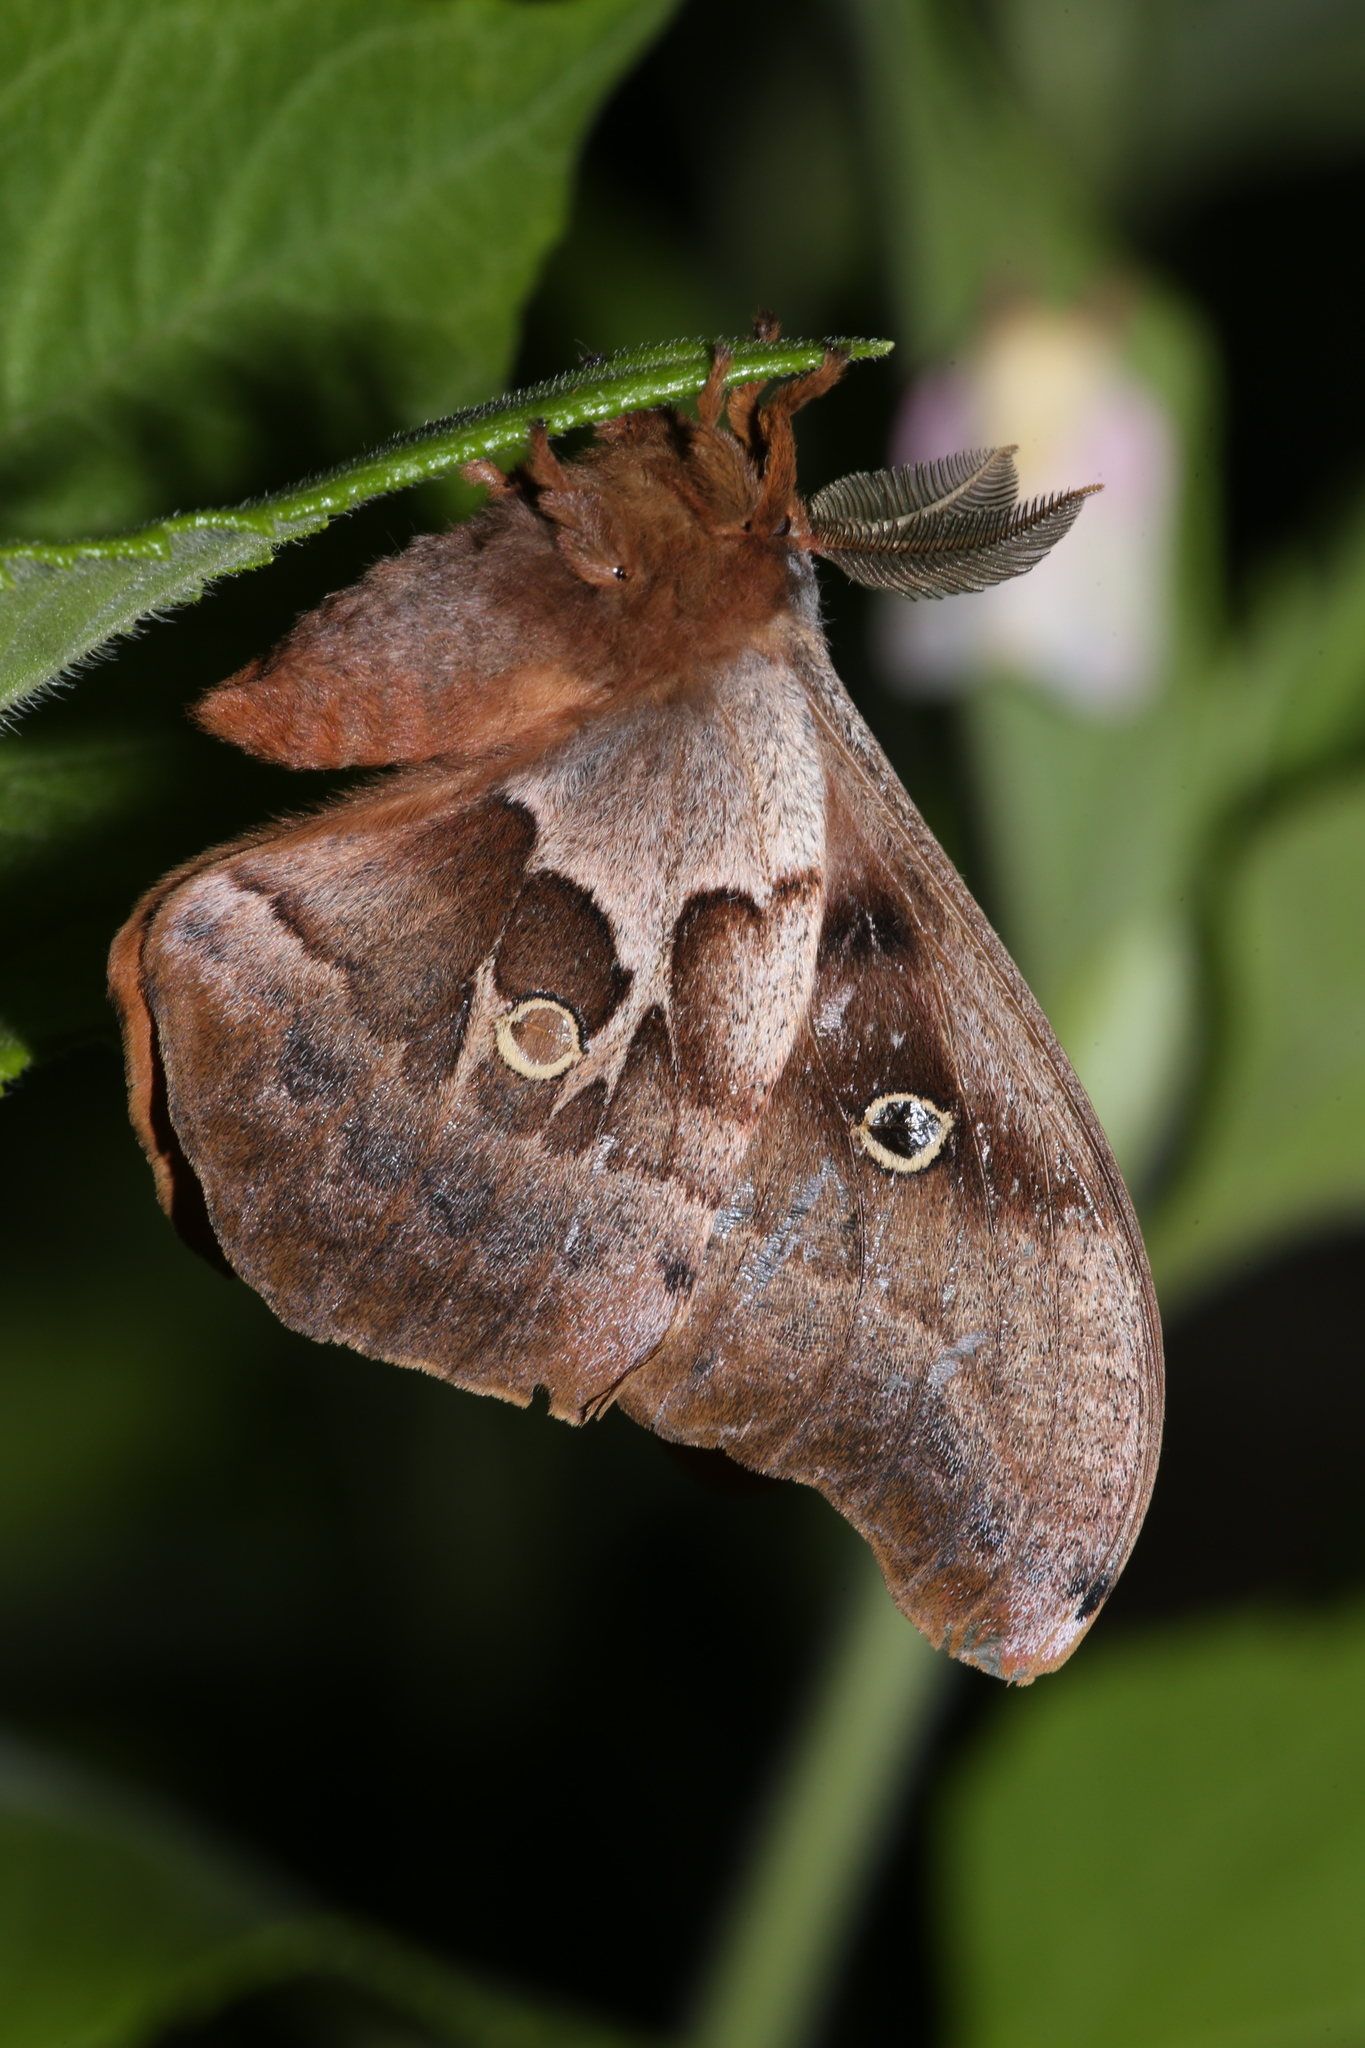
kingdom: Animalia
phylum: Arthropoda
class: Insecta
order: Lepidoptera
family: Saturniidae
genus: Antheraea
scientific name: Antheraea polyphemus
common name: Polyphemus moth
